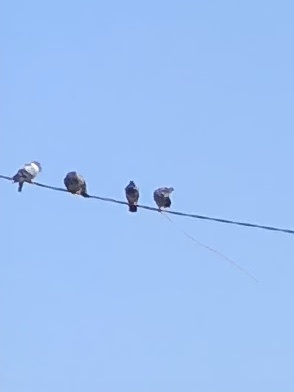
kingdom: Animalia
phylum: Chordata
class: Aves
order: Columbiformes
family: Columbidae
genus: Columba
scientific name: Columba livia
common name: Rock pigeon
